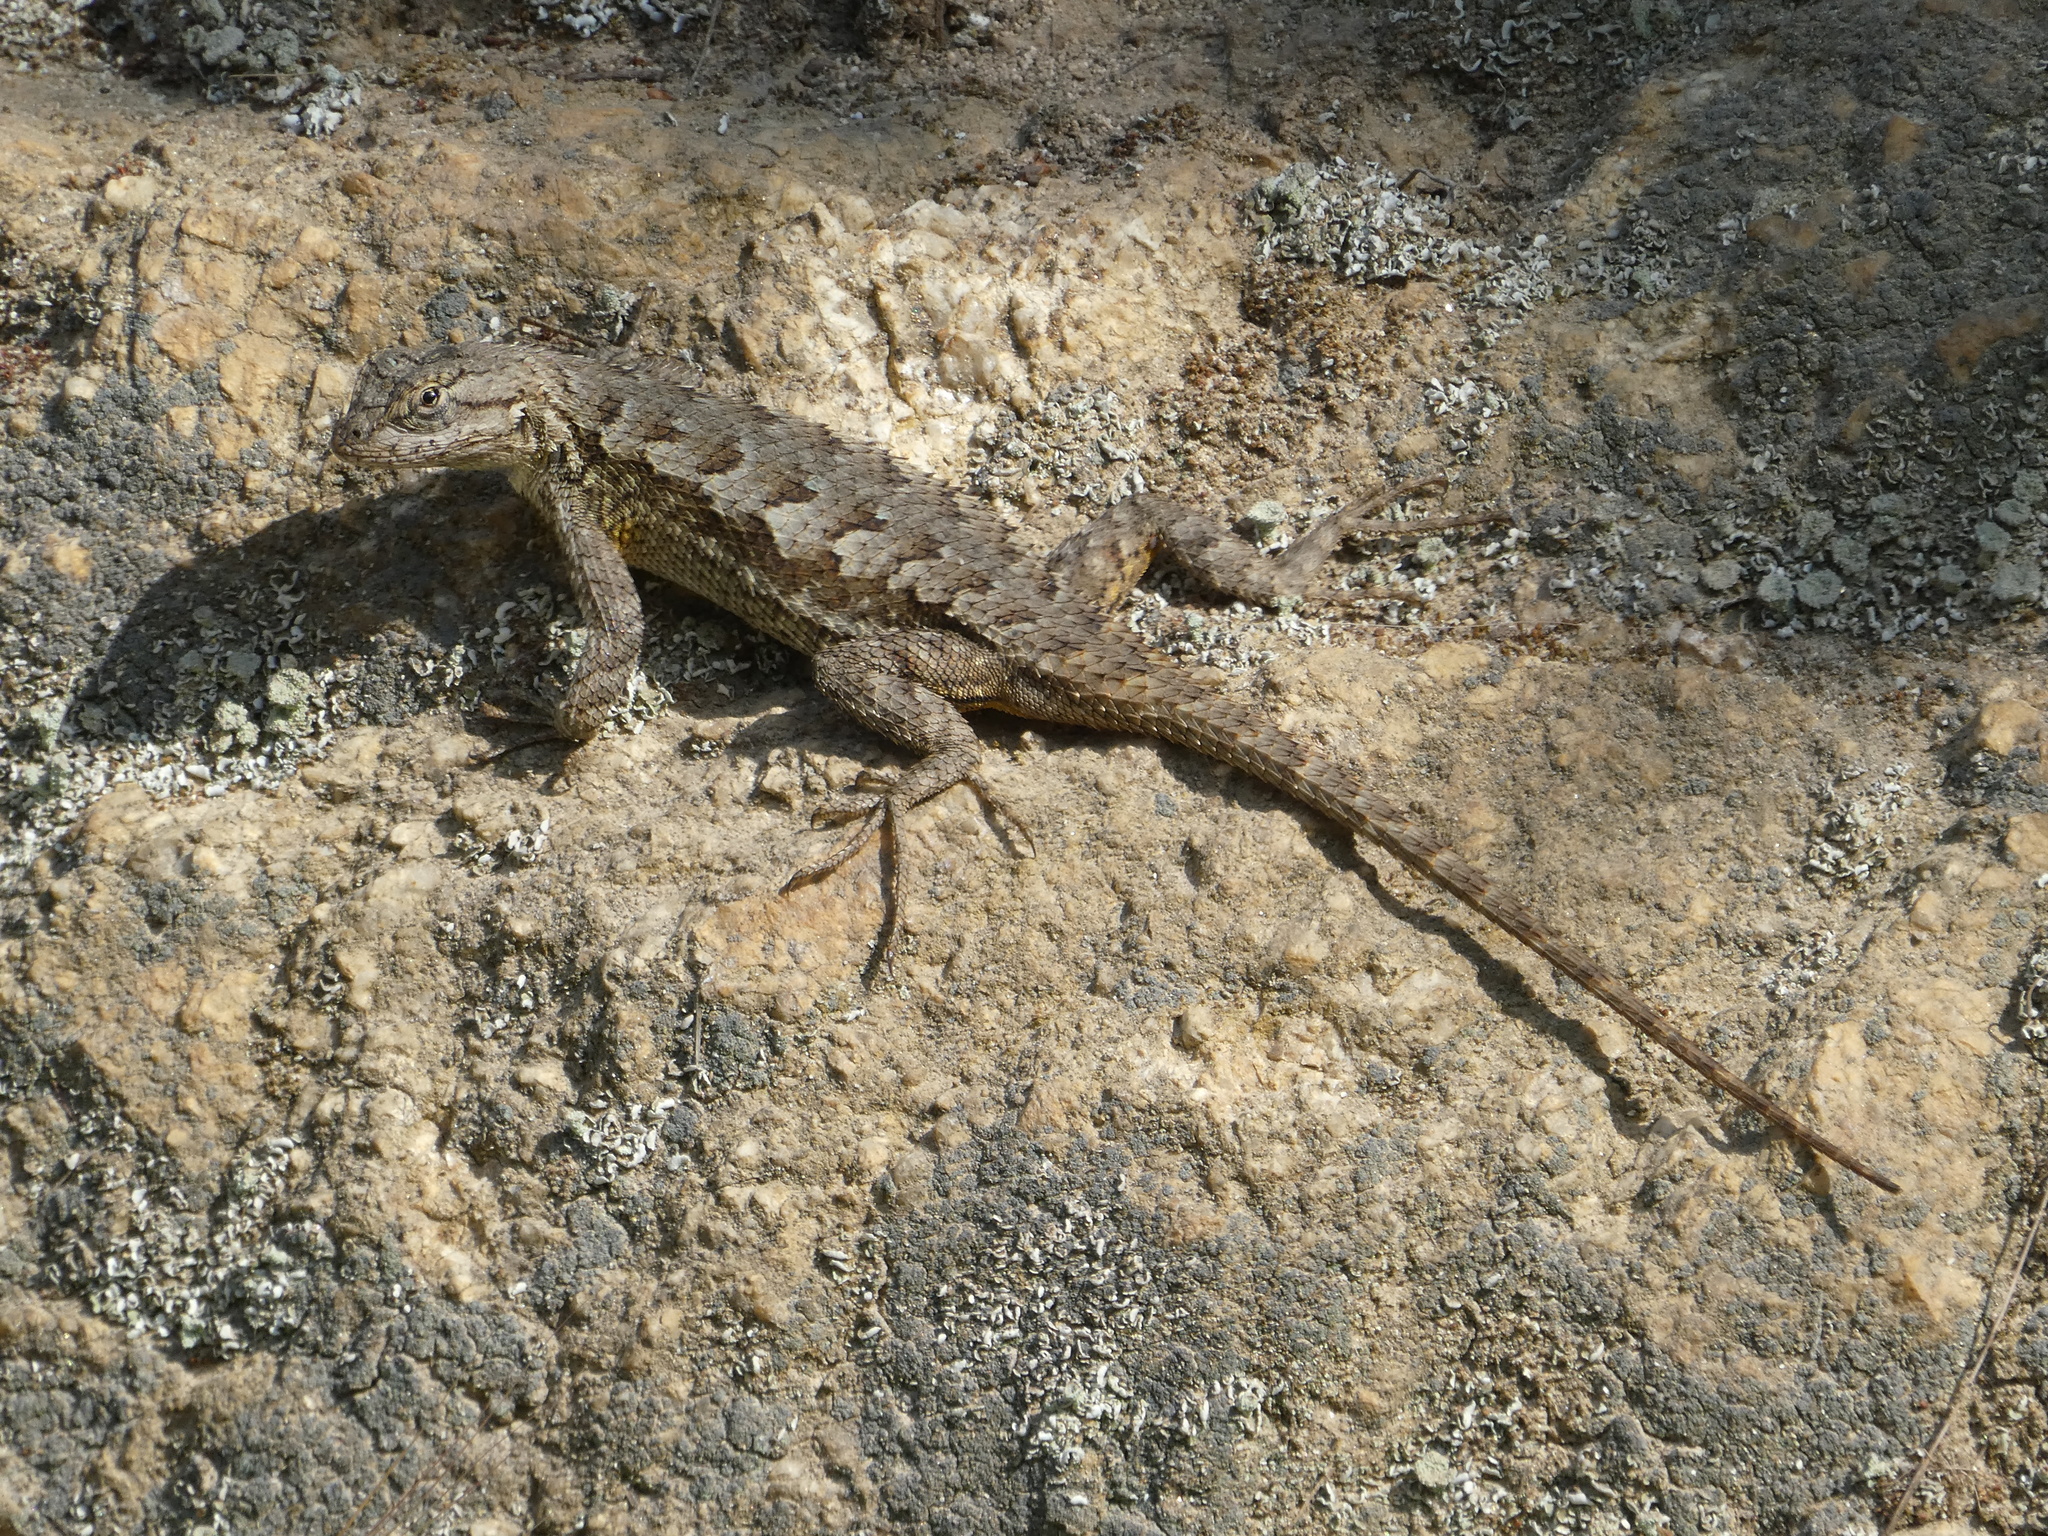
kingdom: Animalia
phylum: Chordata
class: Squamata
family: Phrynosomatidae
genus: Sceloporus
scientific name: Sceloporus occidentalis
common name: Western fence lizard
